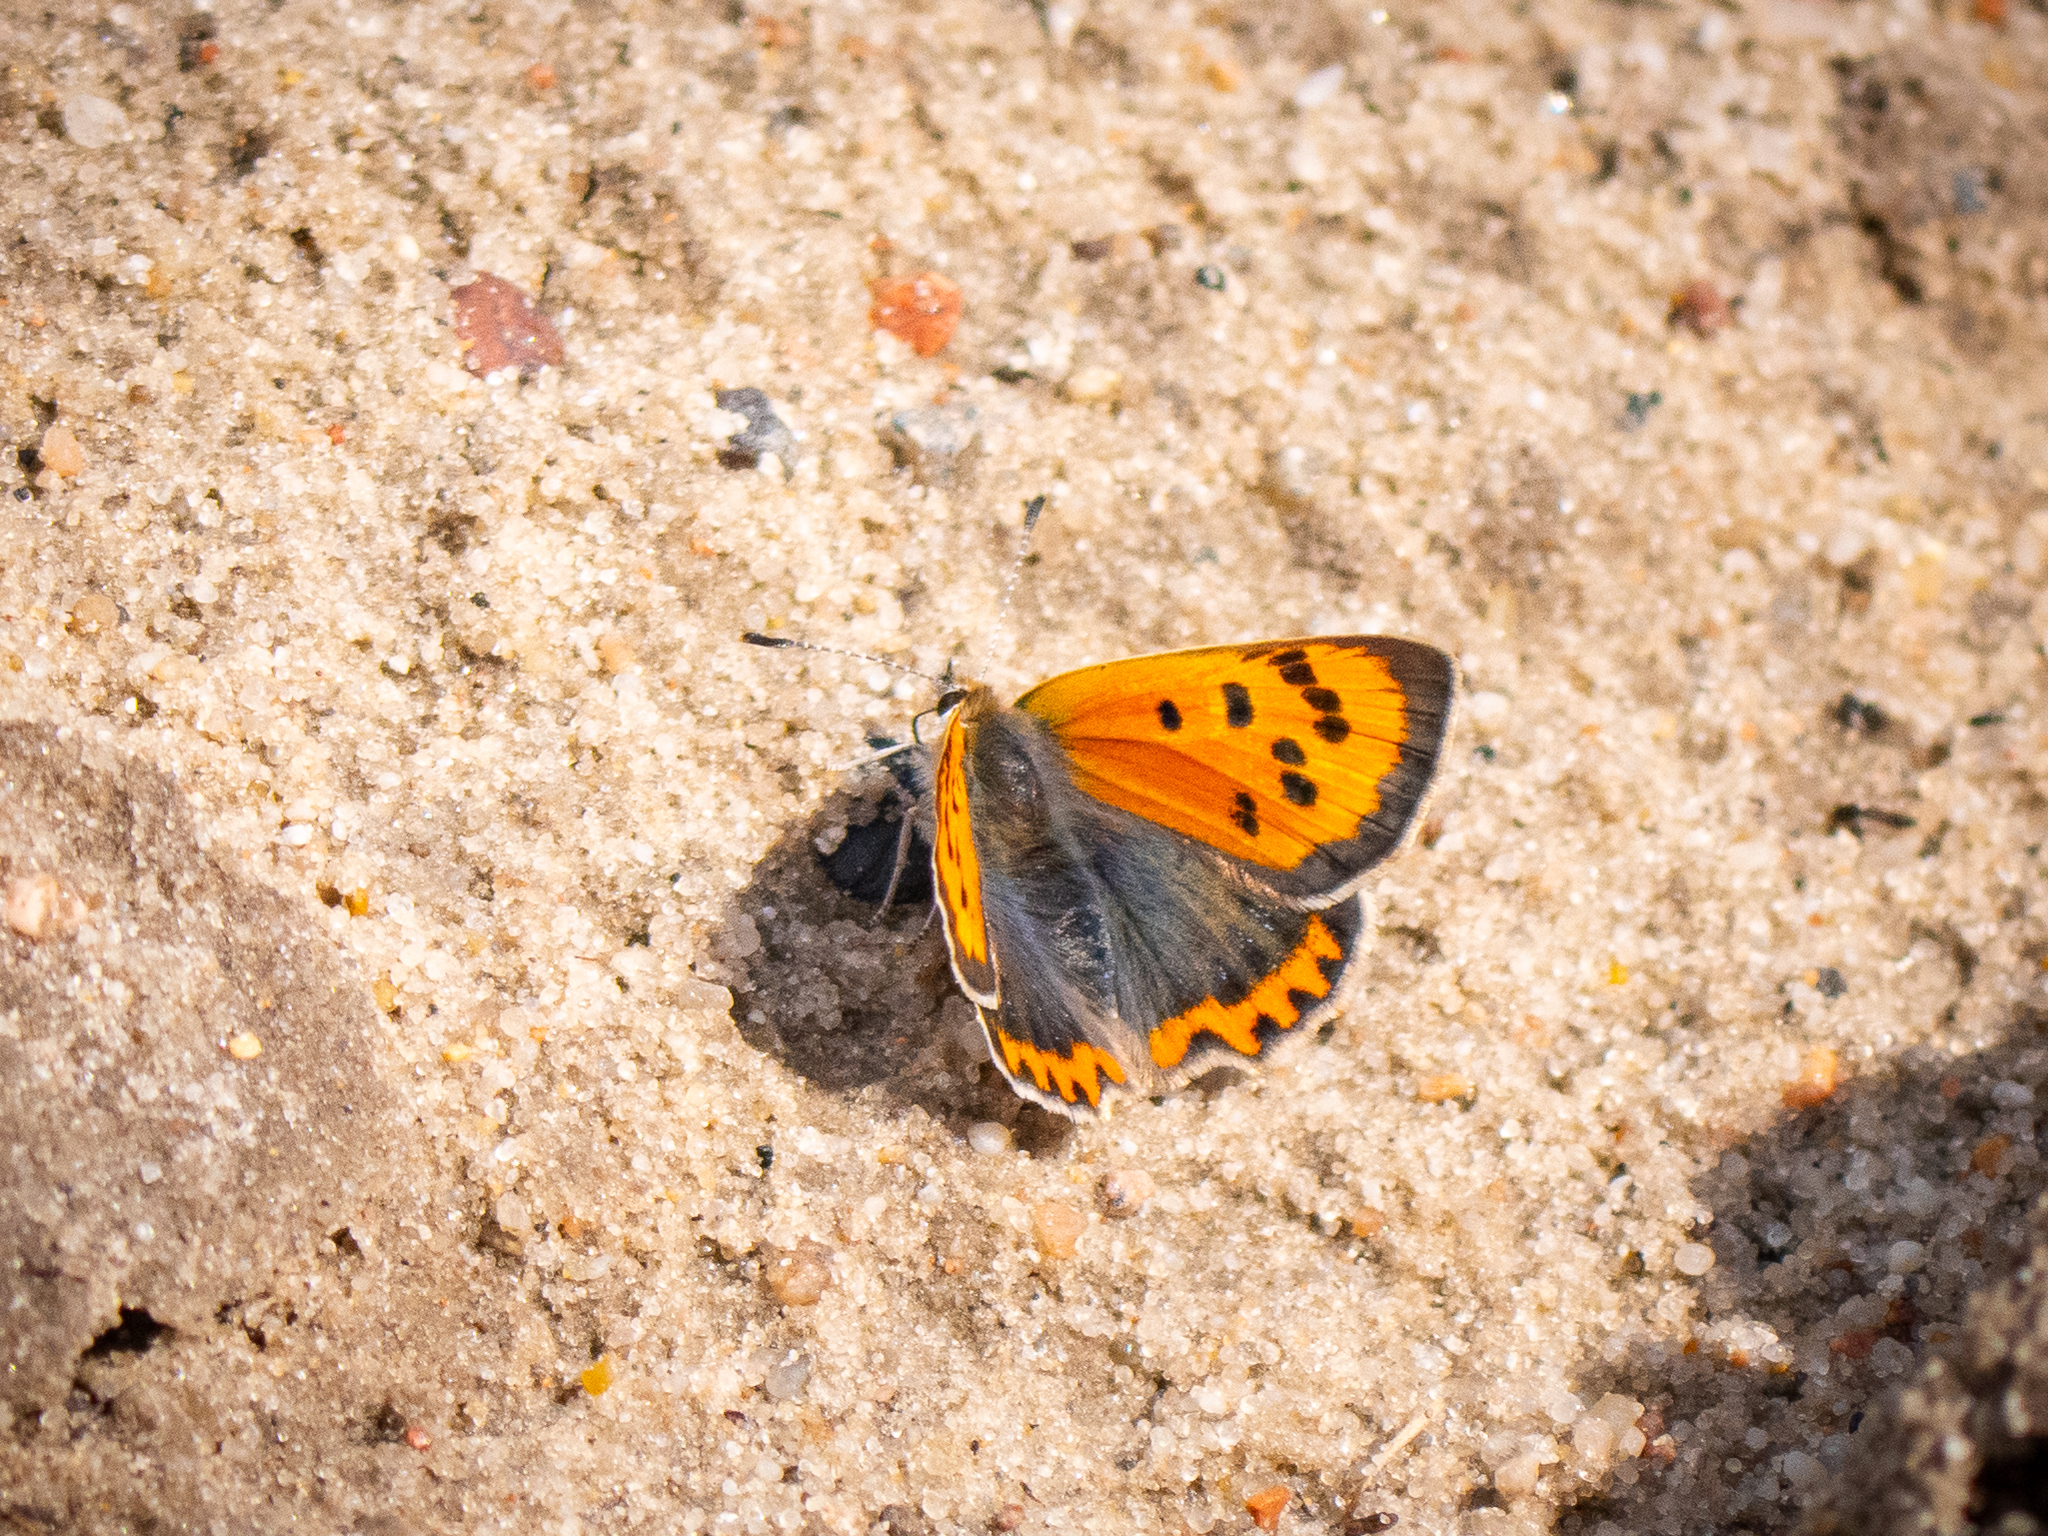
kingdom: Animalia
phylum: Arthropoda
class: Insecta
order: Lepidoptera
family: Lycaenidae
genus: Lycaena
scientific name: Lycaena phlaeas
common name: Small copper
